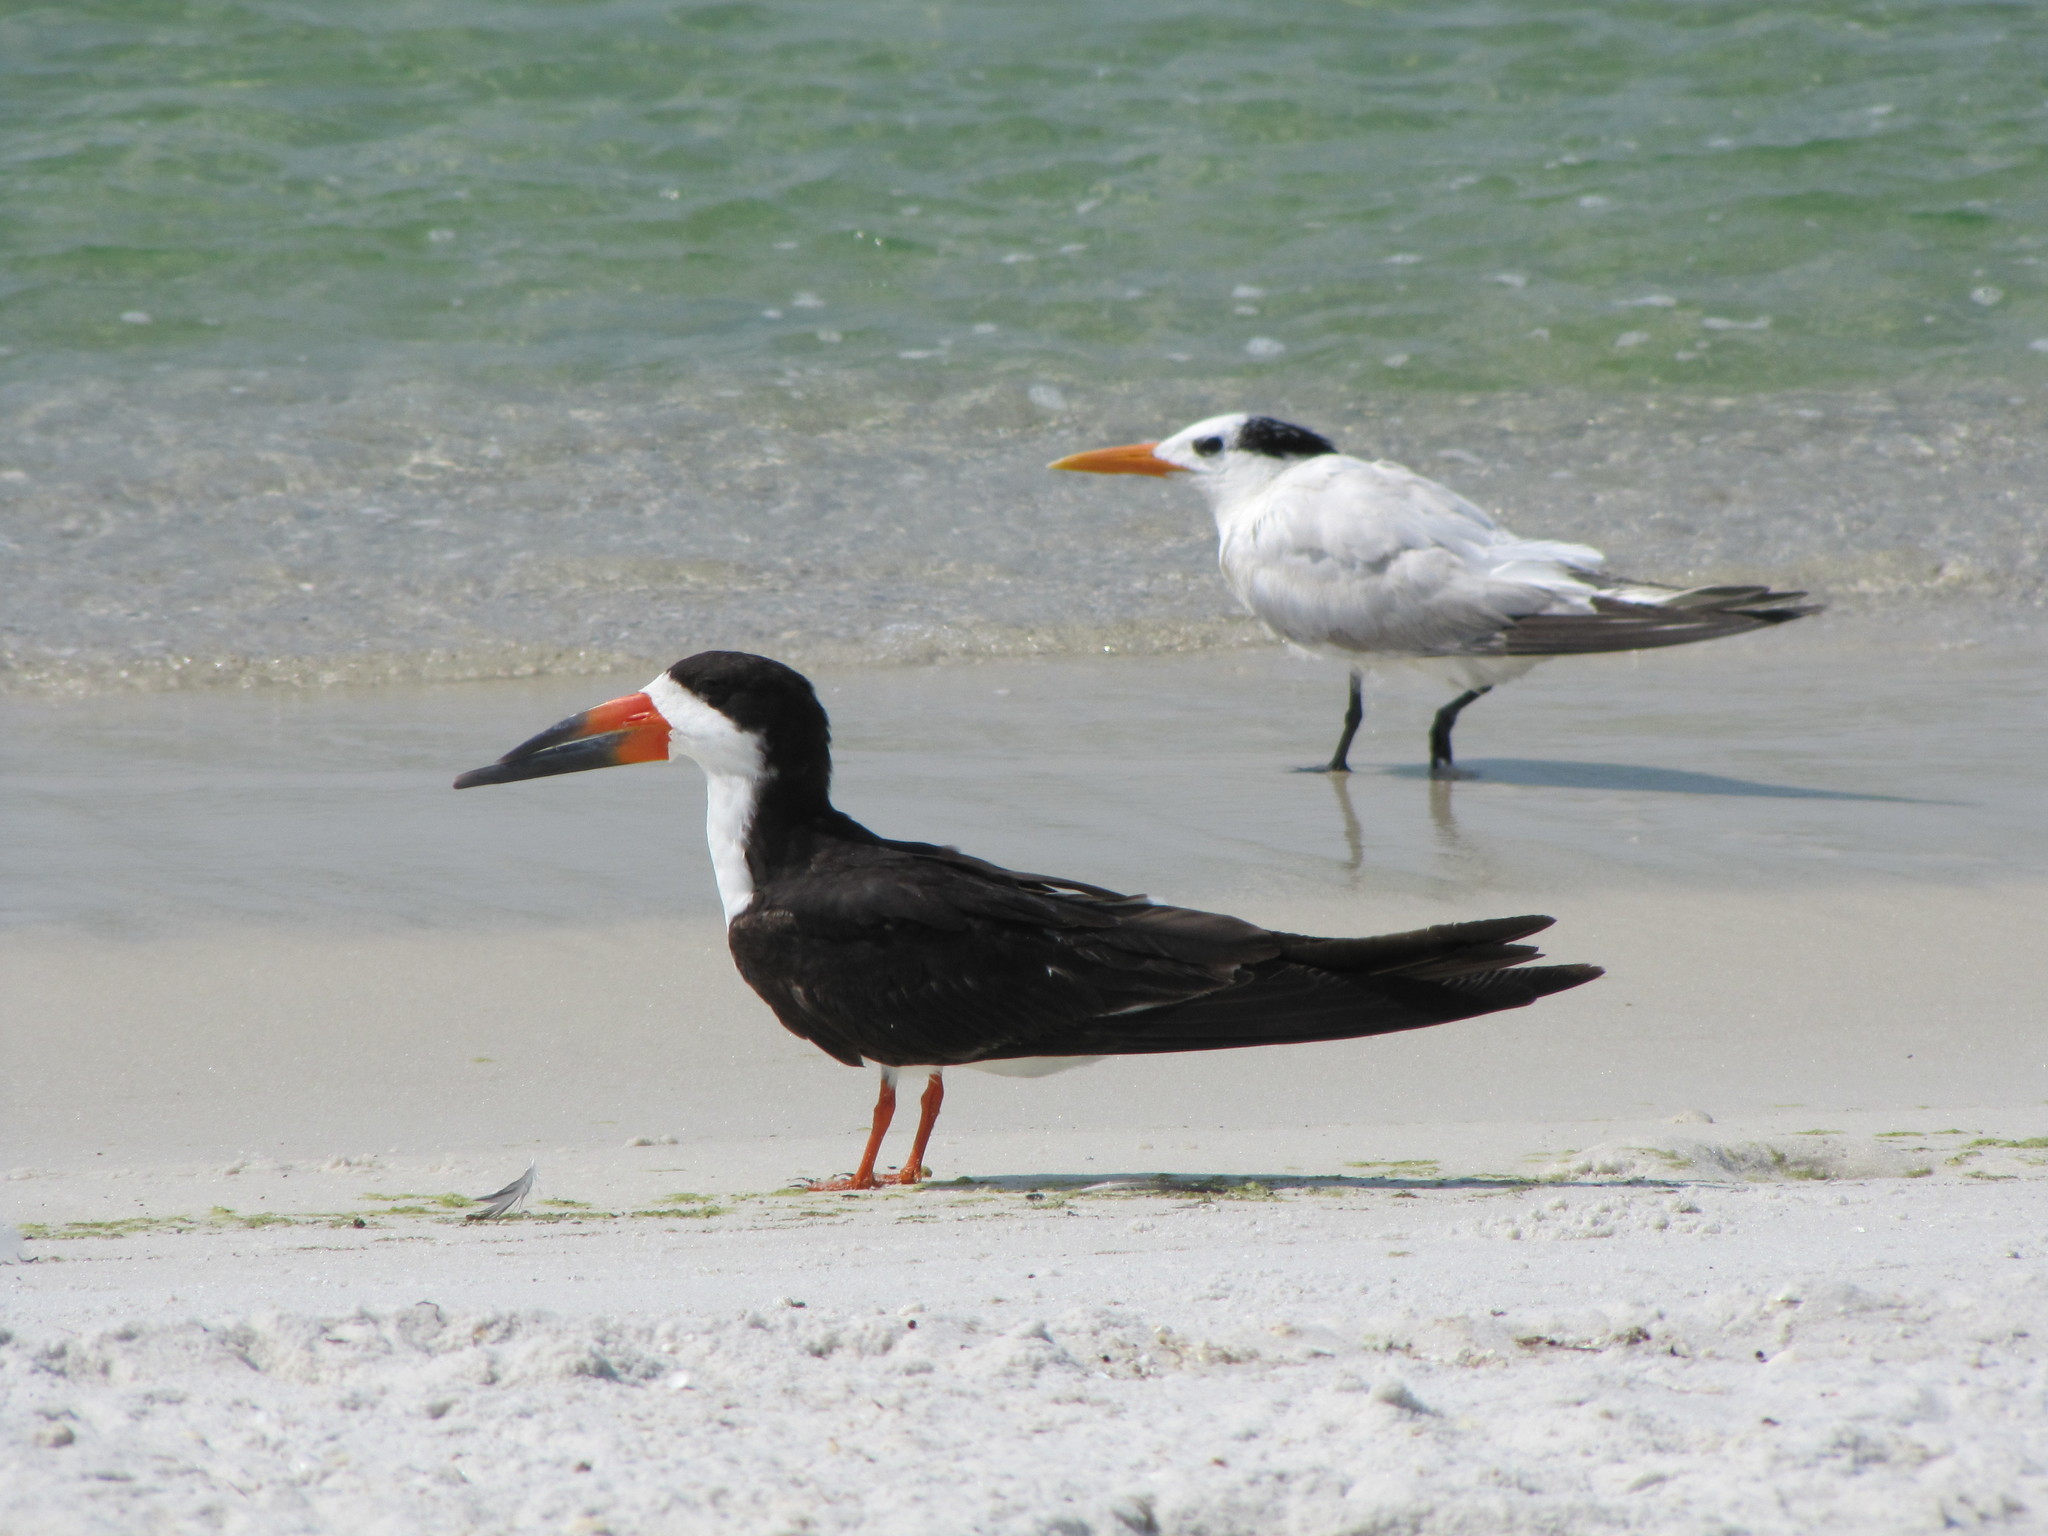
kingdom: Animalia
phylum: Chordata
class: Aves
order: Charadriiformes
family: Laridae
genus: Thalasseus
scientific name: Thalasseus maximus
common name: Royal tern
